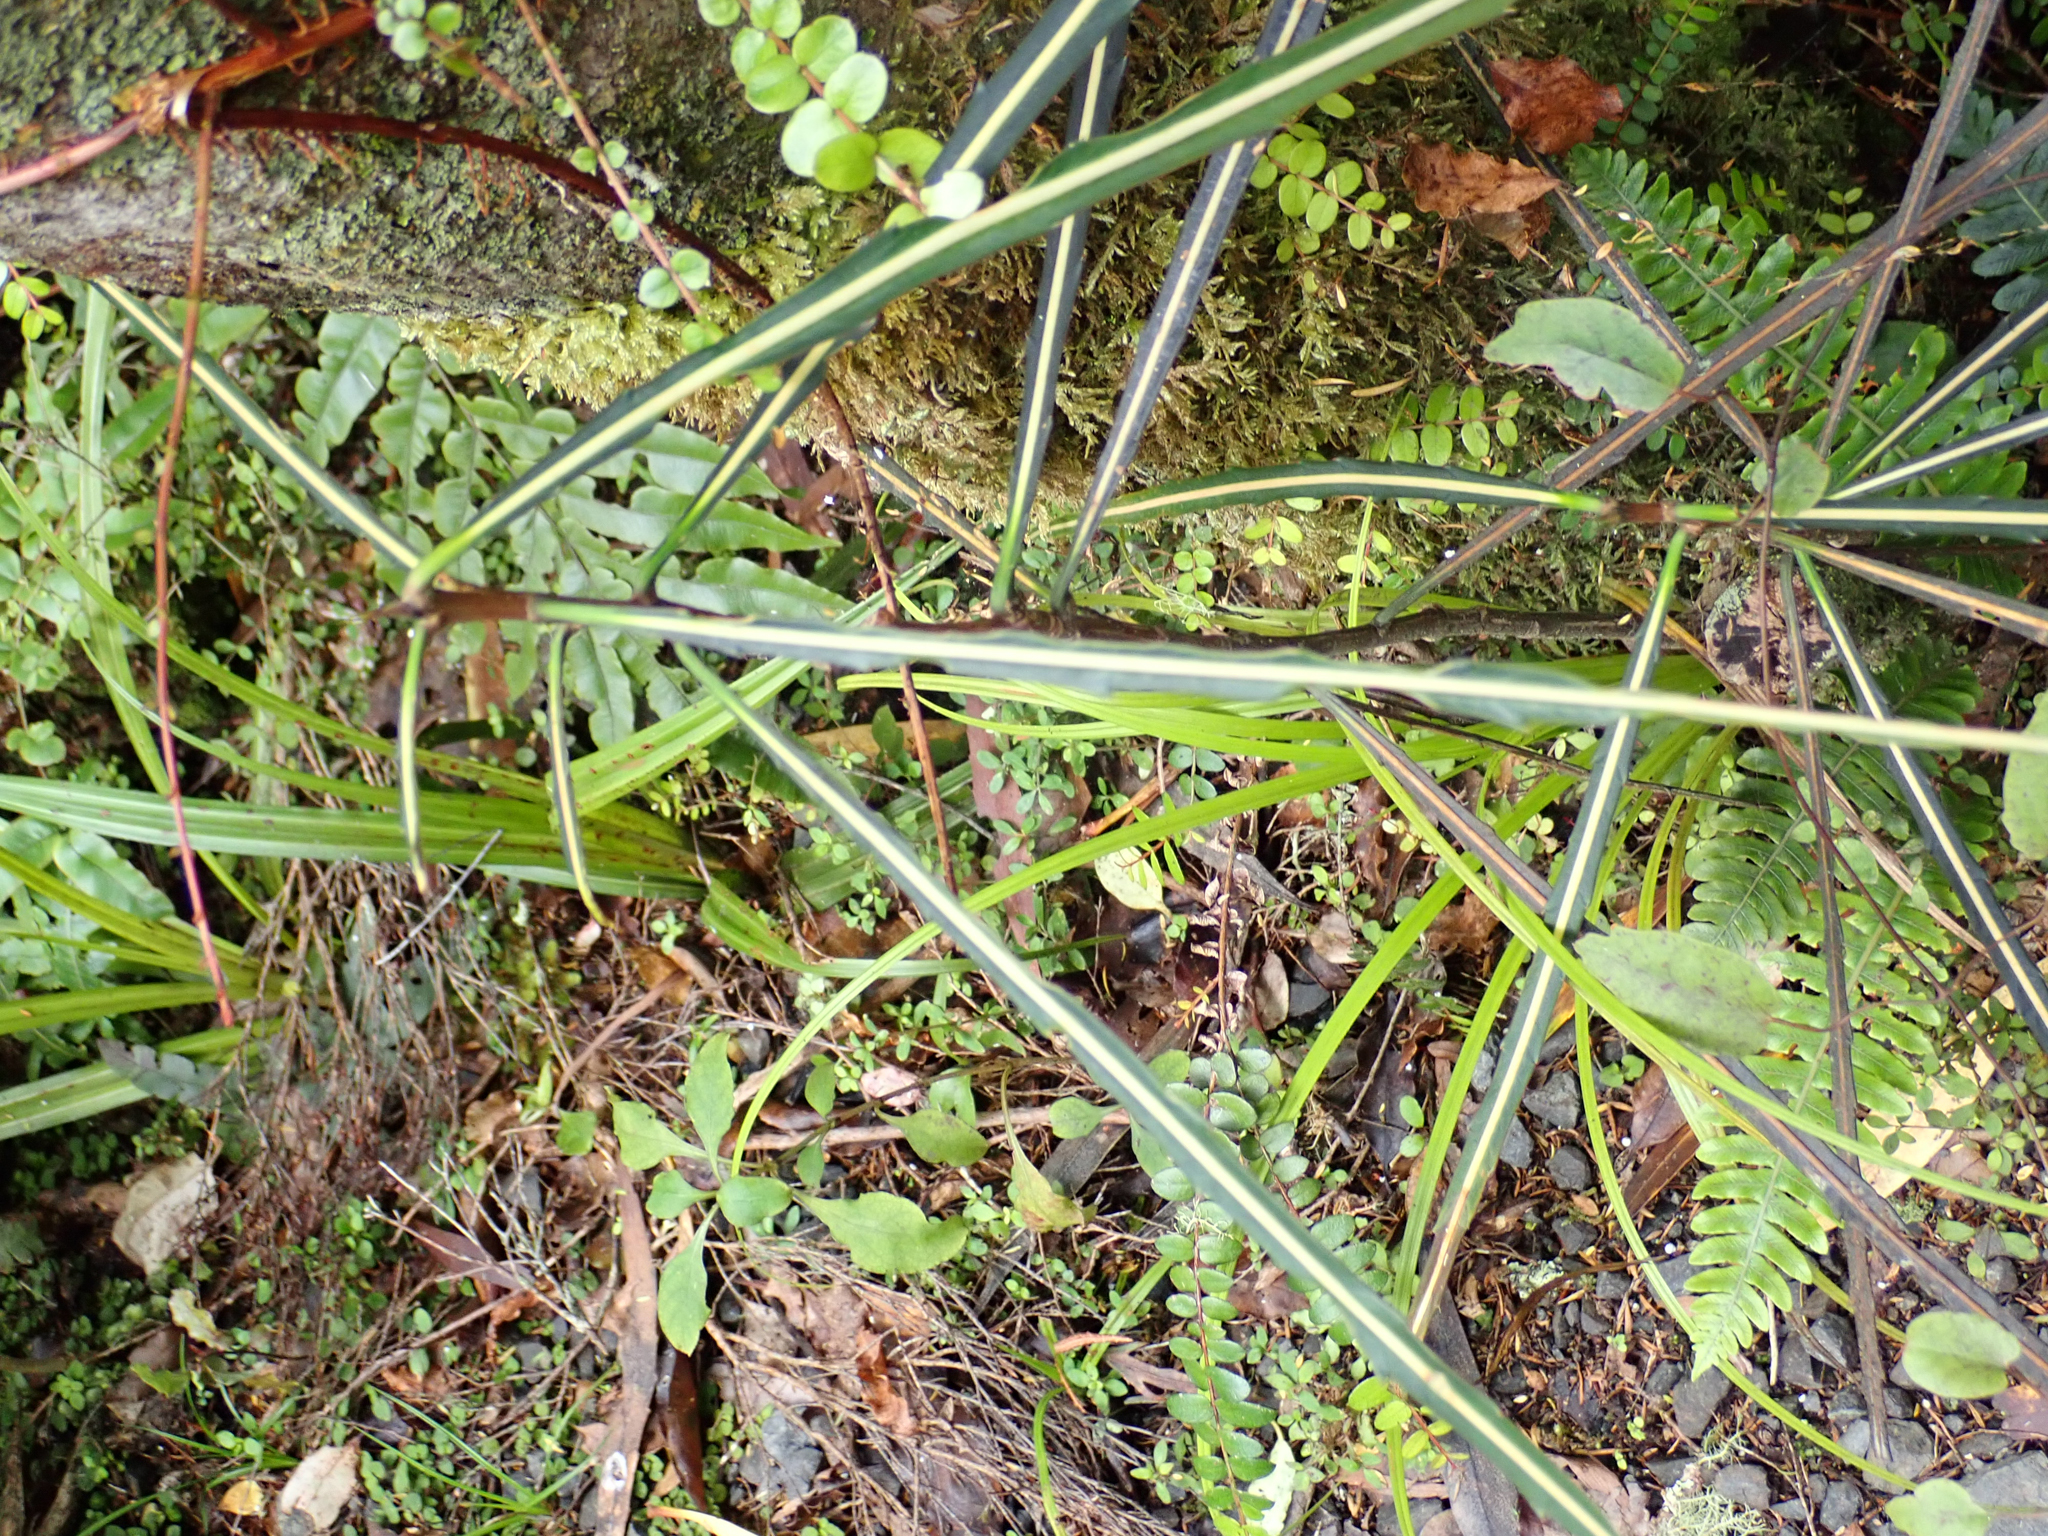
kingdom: Plantae
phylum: Tracheophyta
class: Magnoliopsida
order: Apiales
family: Araliaceae
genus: Pseudopanax
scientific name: Pseudopanax crassifolius
